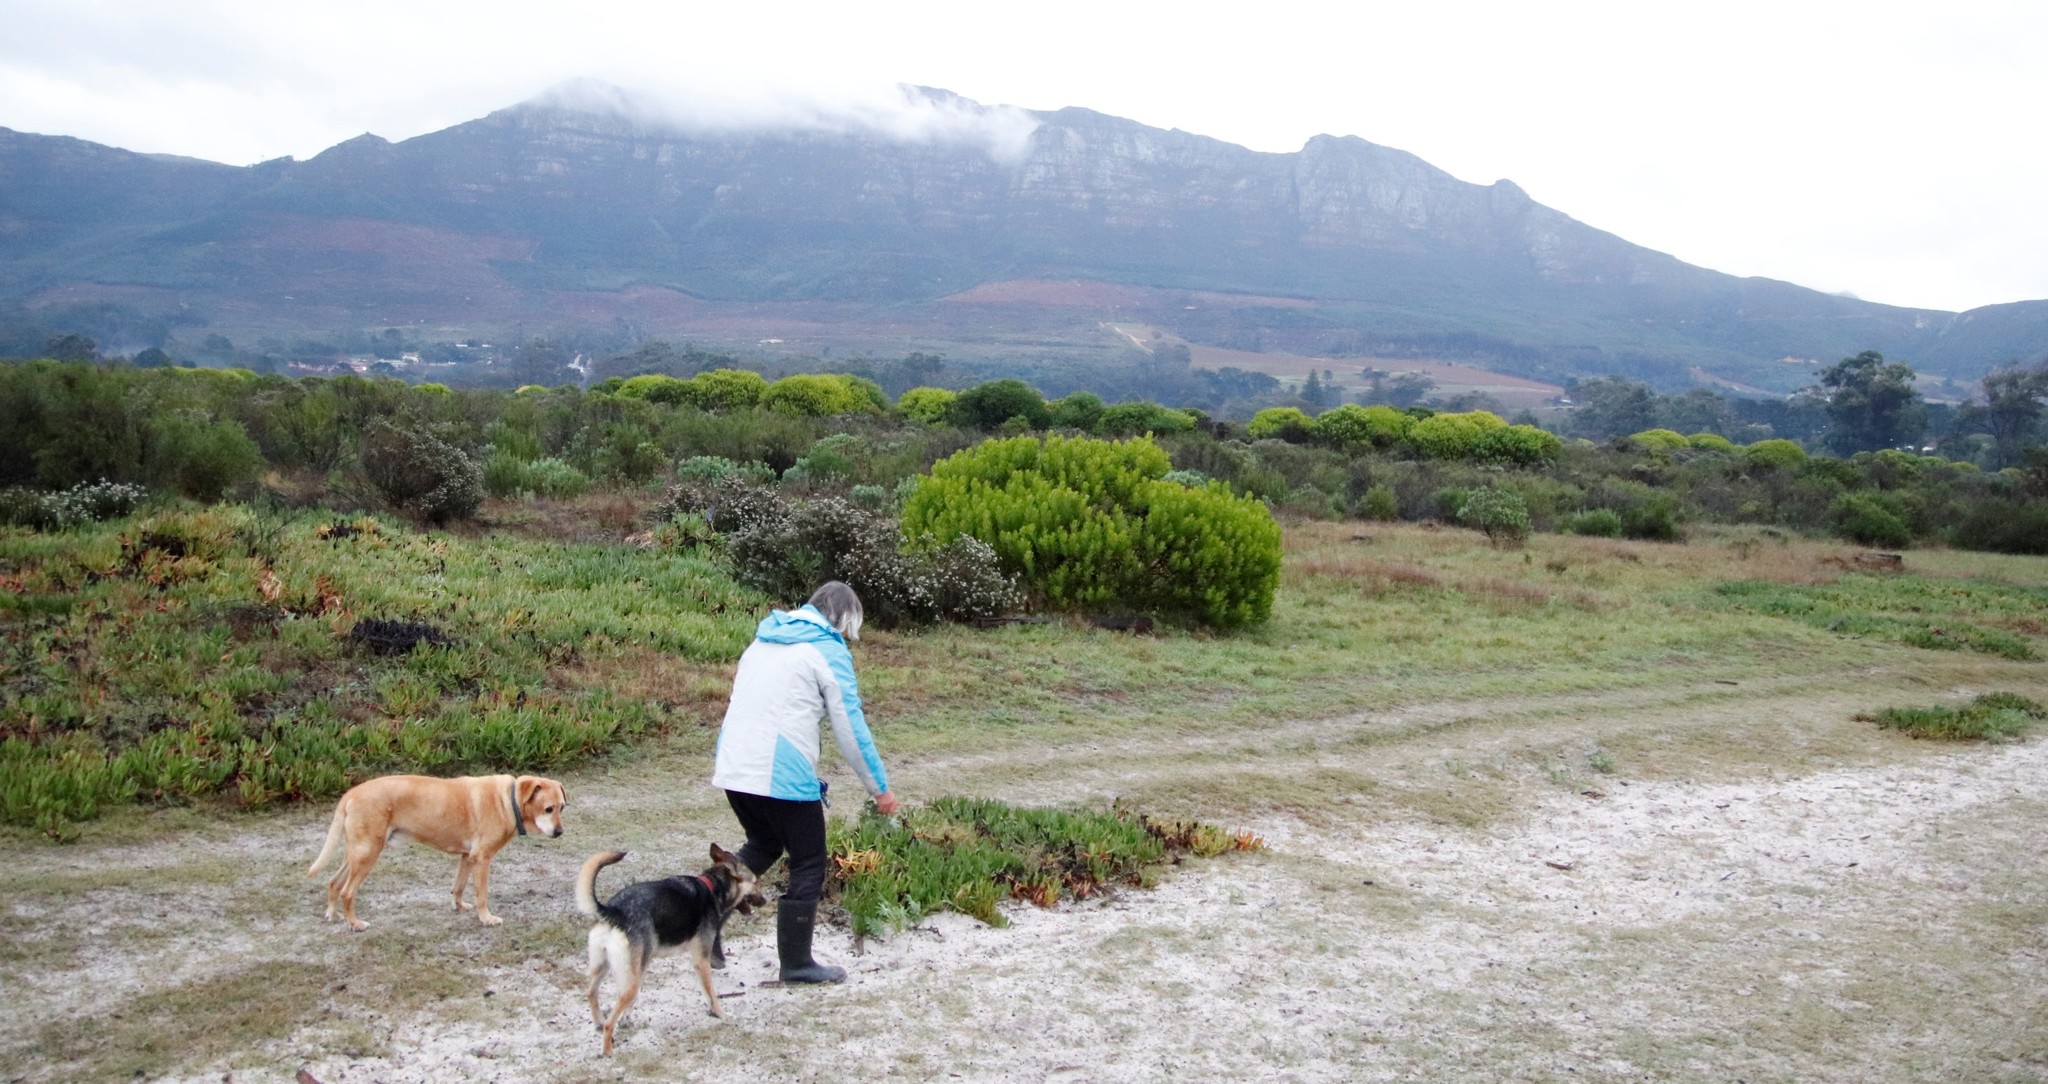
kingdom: Plantae
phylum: Tracheophyta
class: Magnoliopsida
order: Proteales
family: Proteaceae
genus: Leucadendron
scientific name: Leucadendron laureolum
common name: Golden sunshinebush
